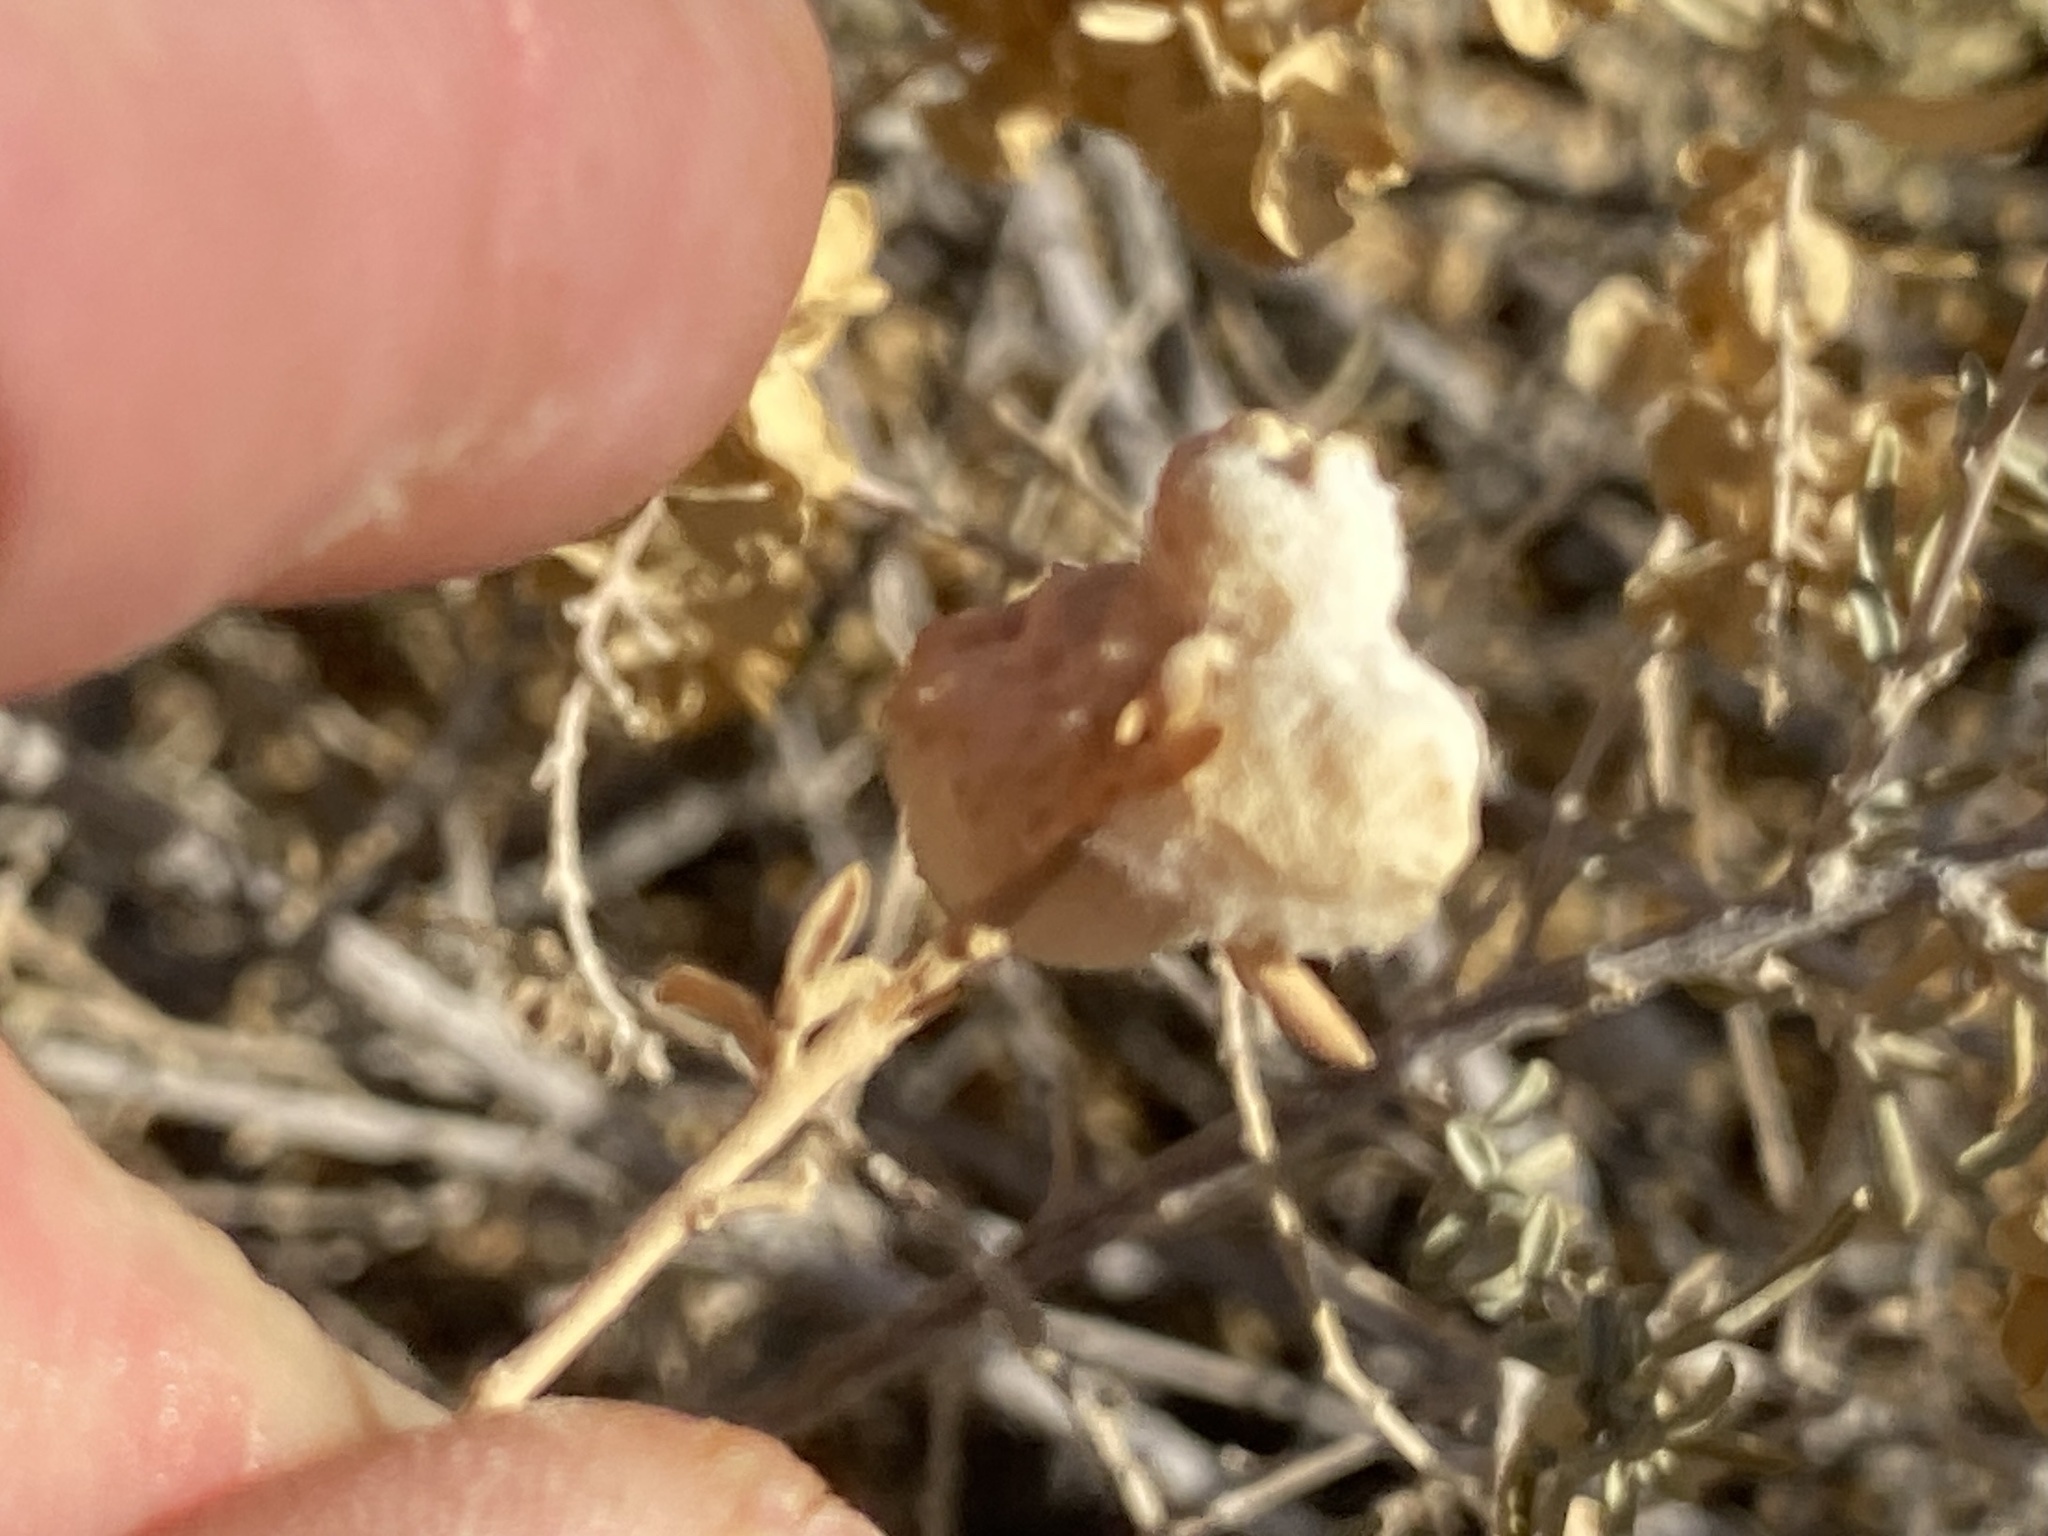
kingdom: Animalia
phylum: Arthropoda
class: Insecta
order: Diptera
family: Cecidomyiidae
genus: Asphondylia
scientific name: Asphondylia neomexicana
